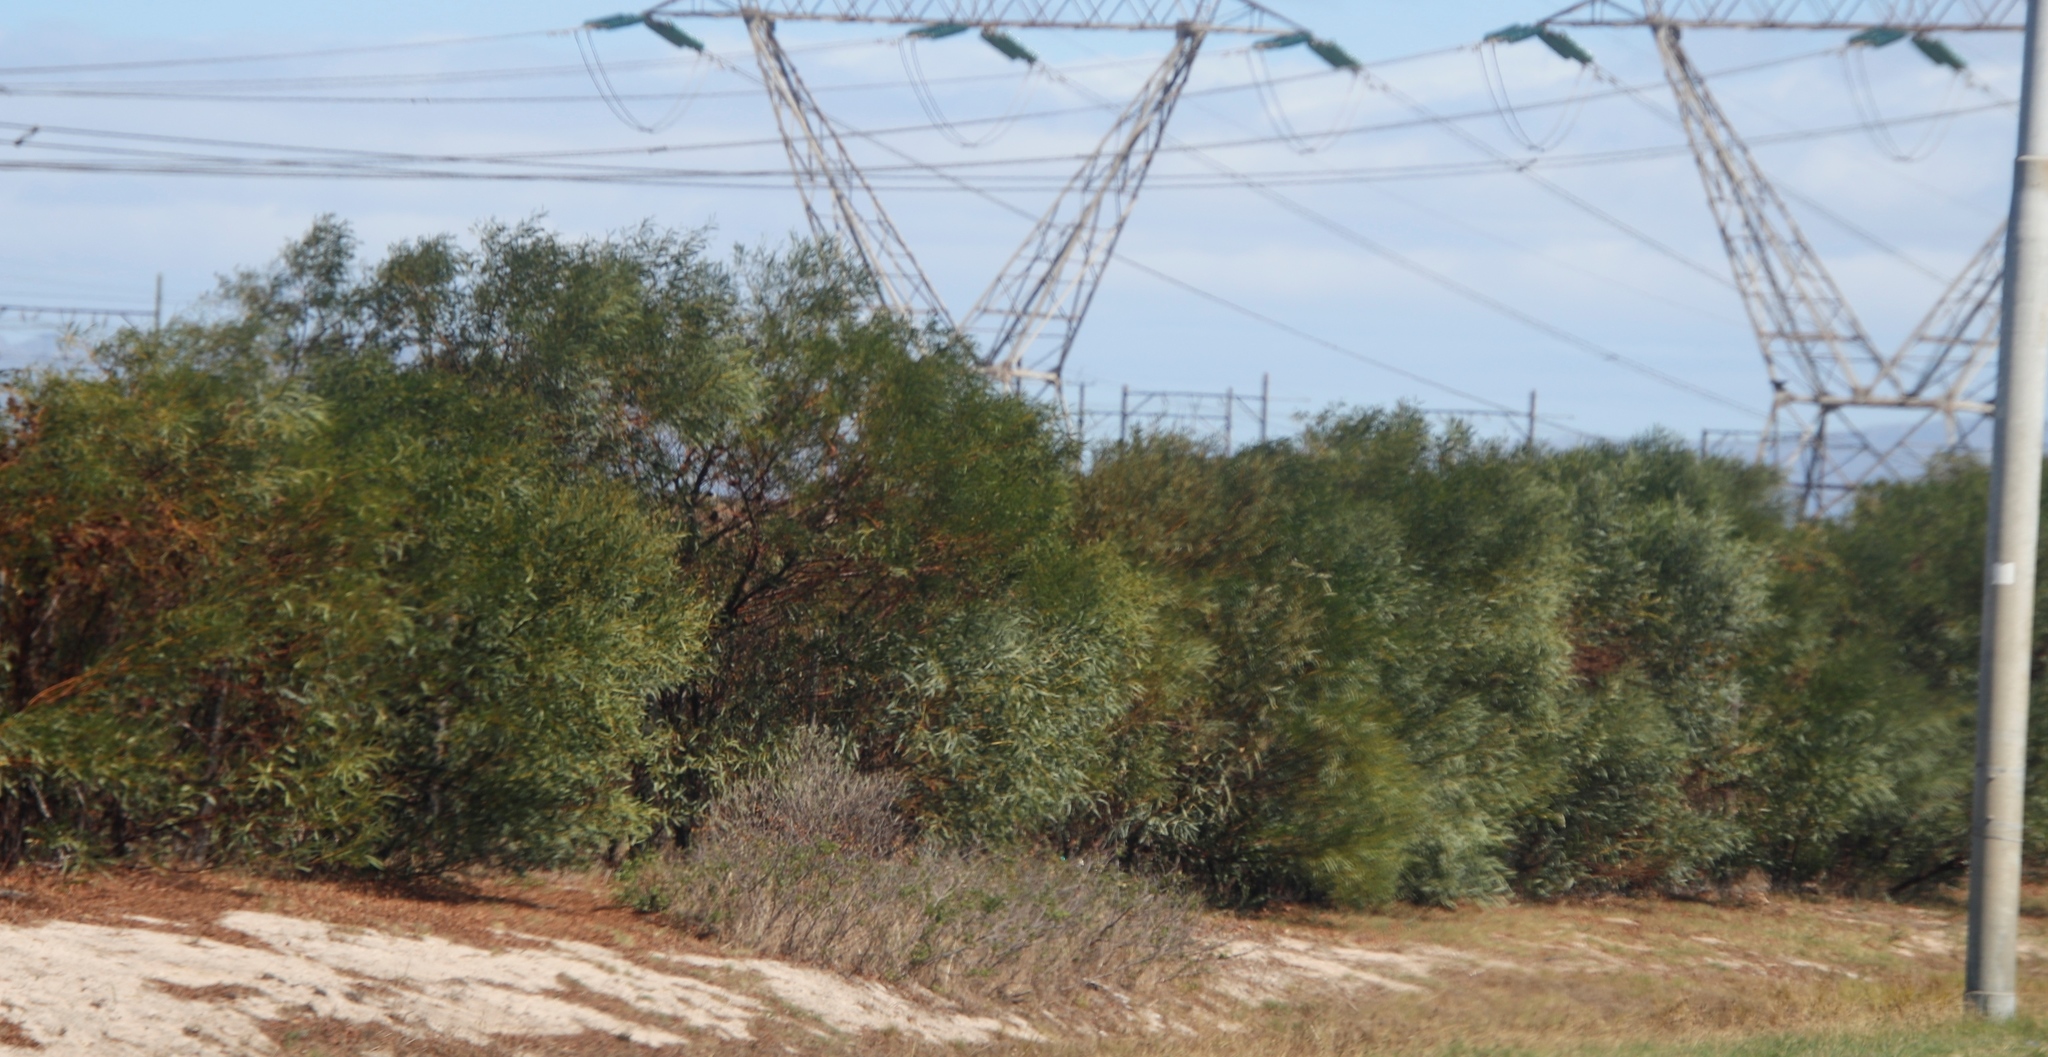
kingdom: Plantae
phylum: Tracheophyta
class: Magnoliopsida
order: Fabales
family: Fabaceae
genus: Acacia
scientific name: Acacia saligna
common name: Orange wattle
